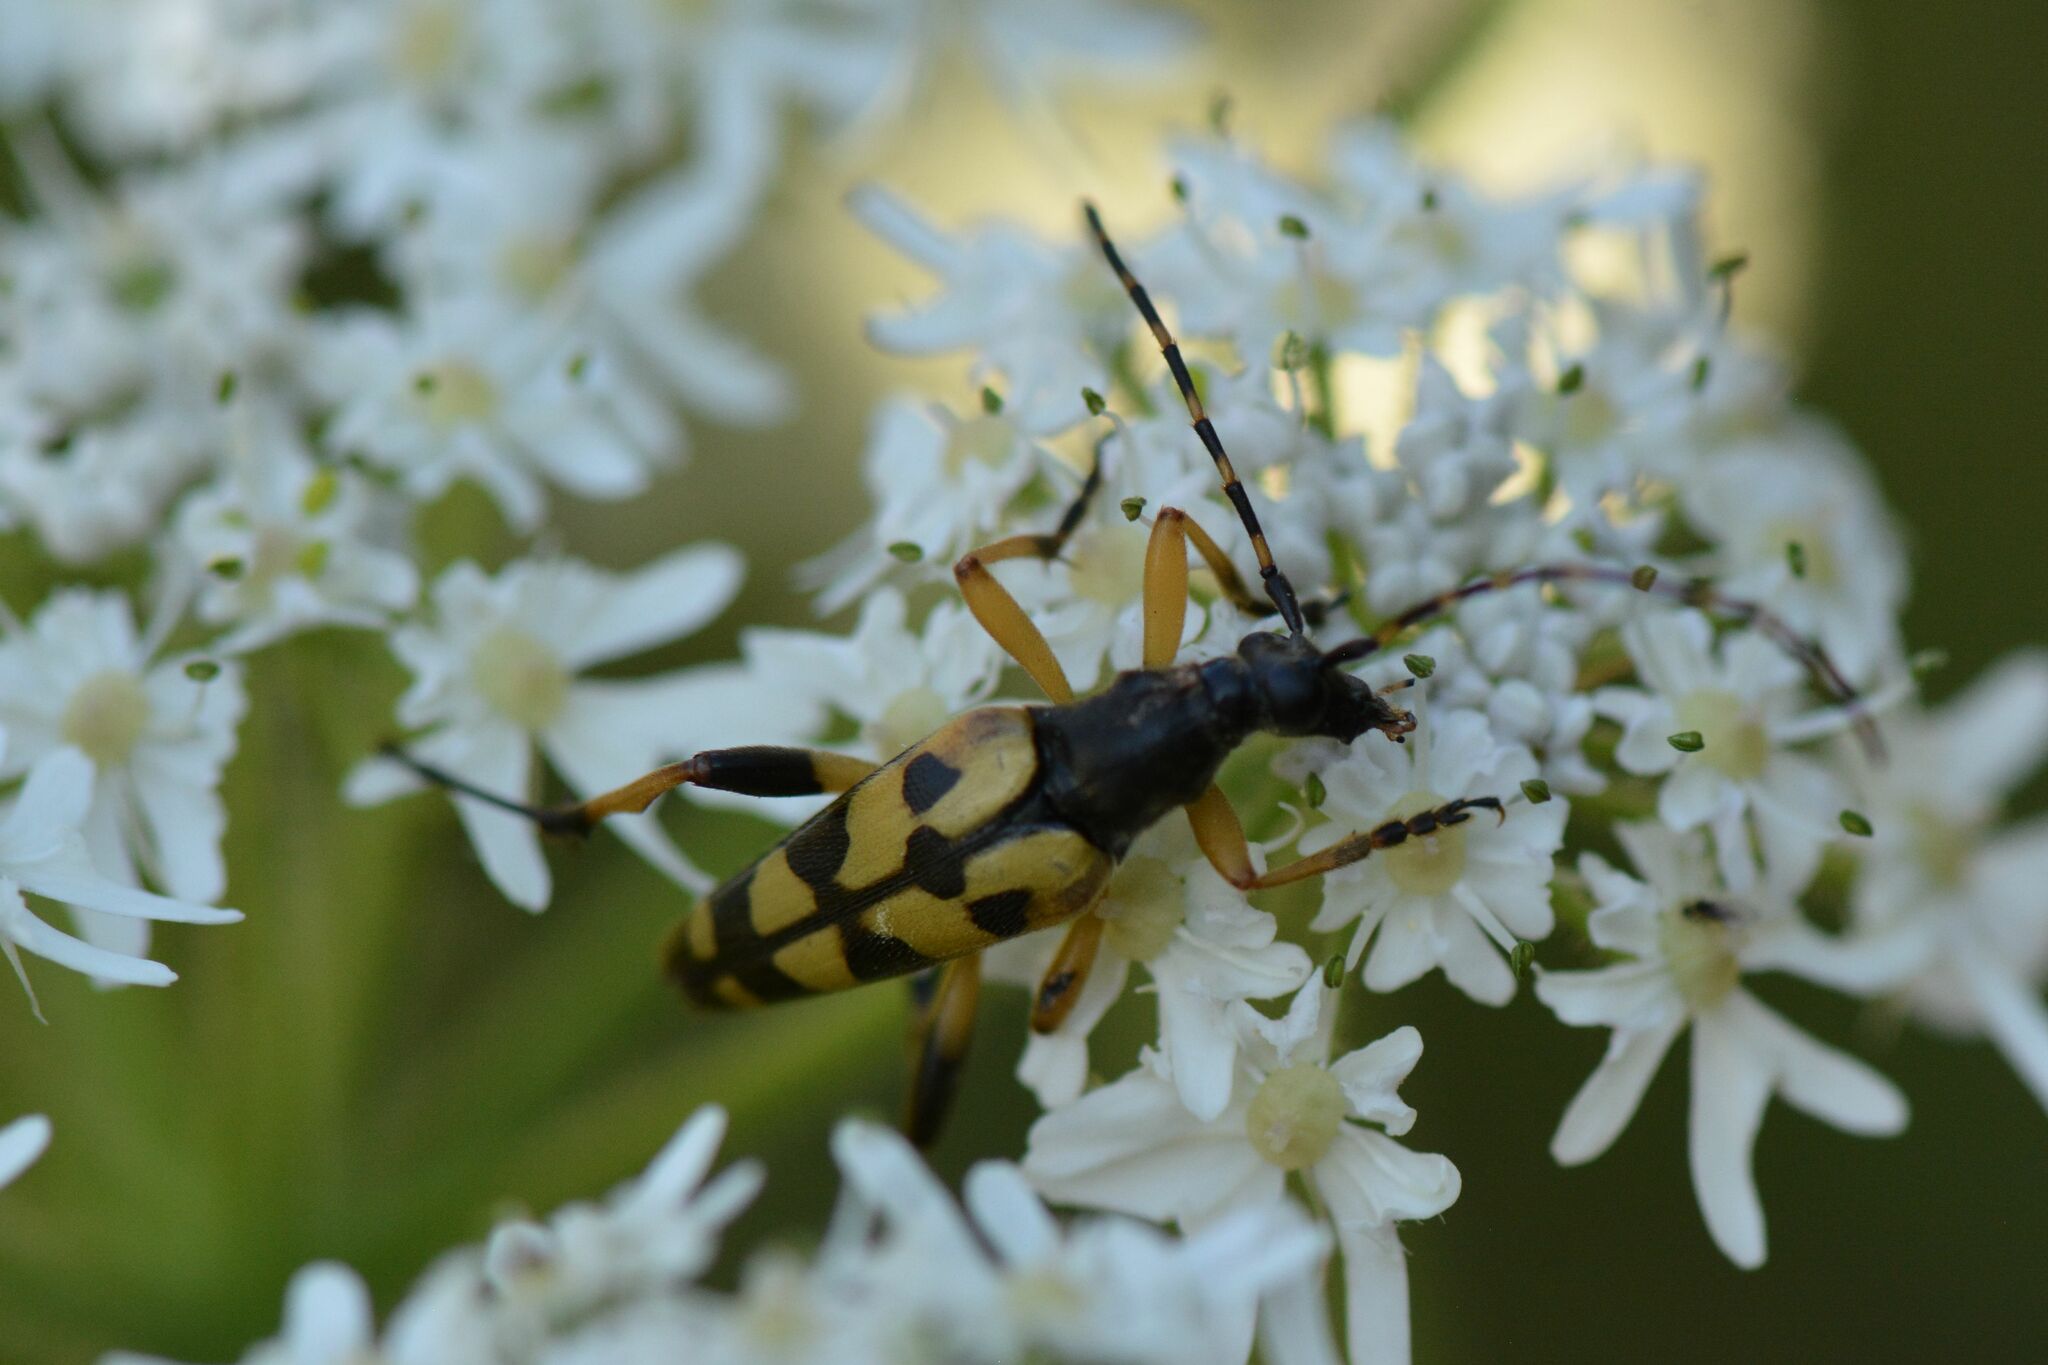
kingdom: Animalia
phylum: Arthropoda
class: Insecta
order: Coleoptera
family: Cerambycidae
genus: Rutpela
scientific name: Rutpela maculata
